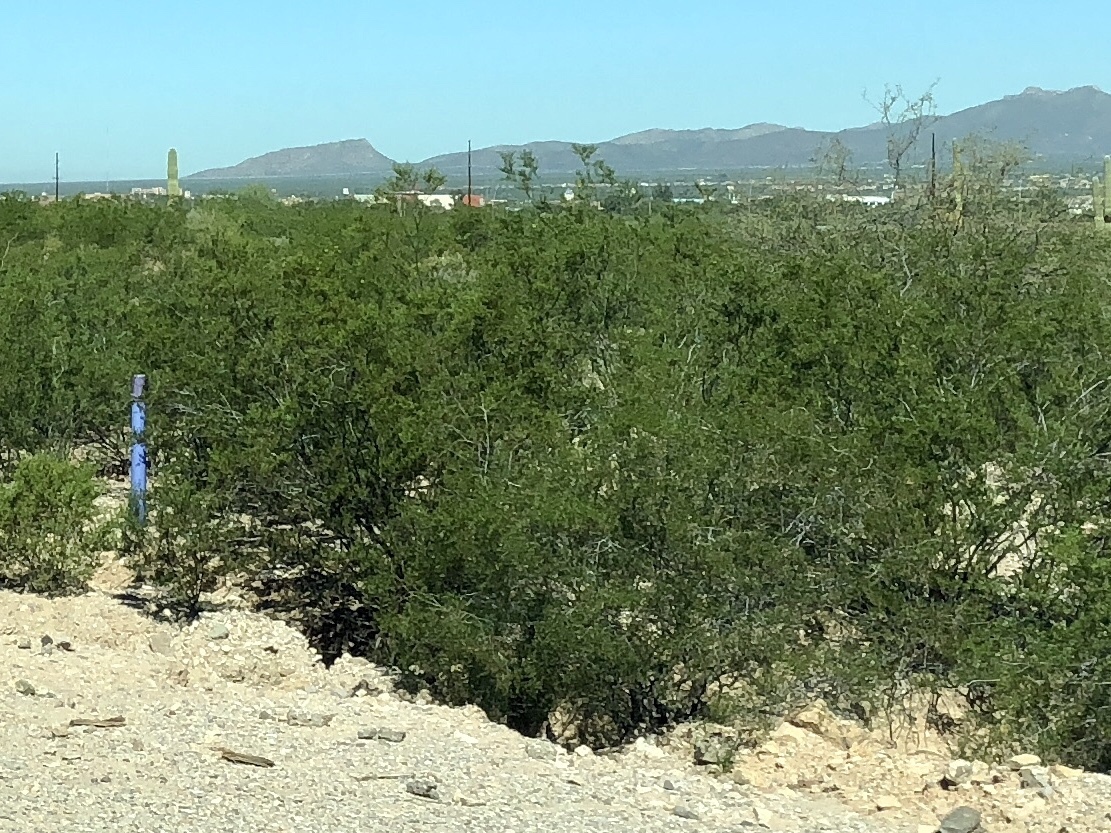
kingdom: Plantae
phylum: Tracheophyta
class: Magnoliopsida
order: Zygophyllales
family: Zygophyllaceae
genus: Larrea
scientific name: Larrea tridentata
